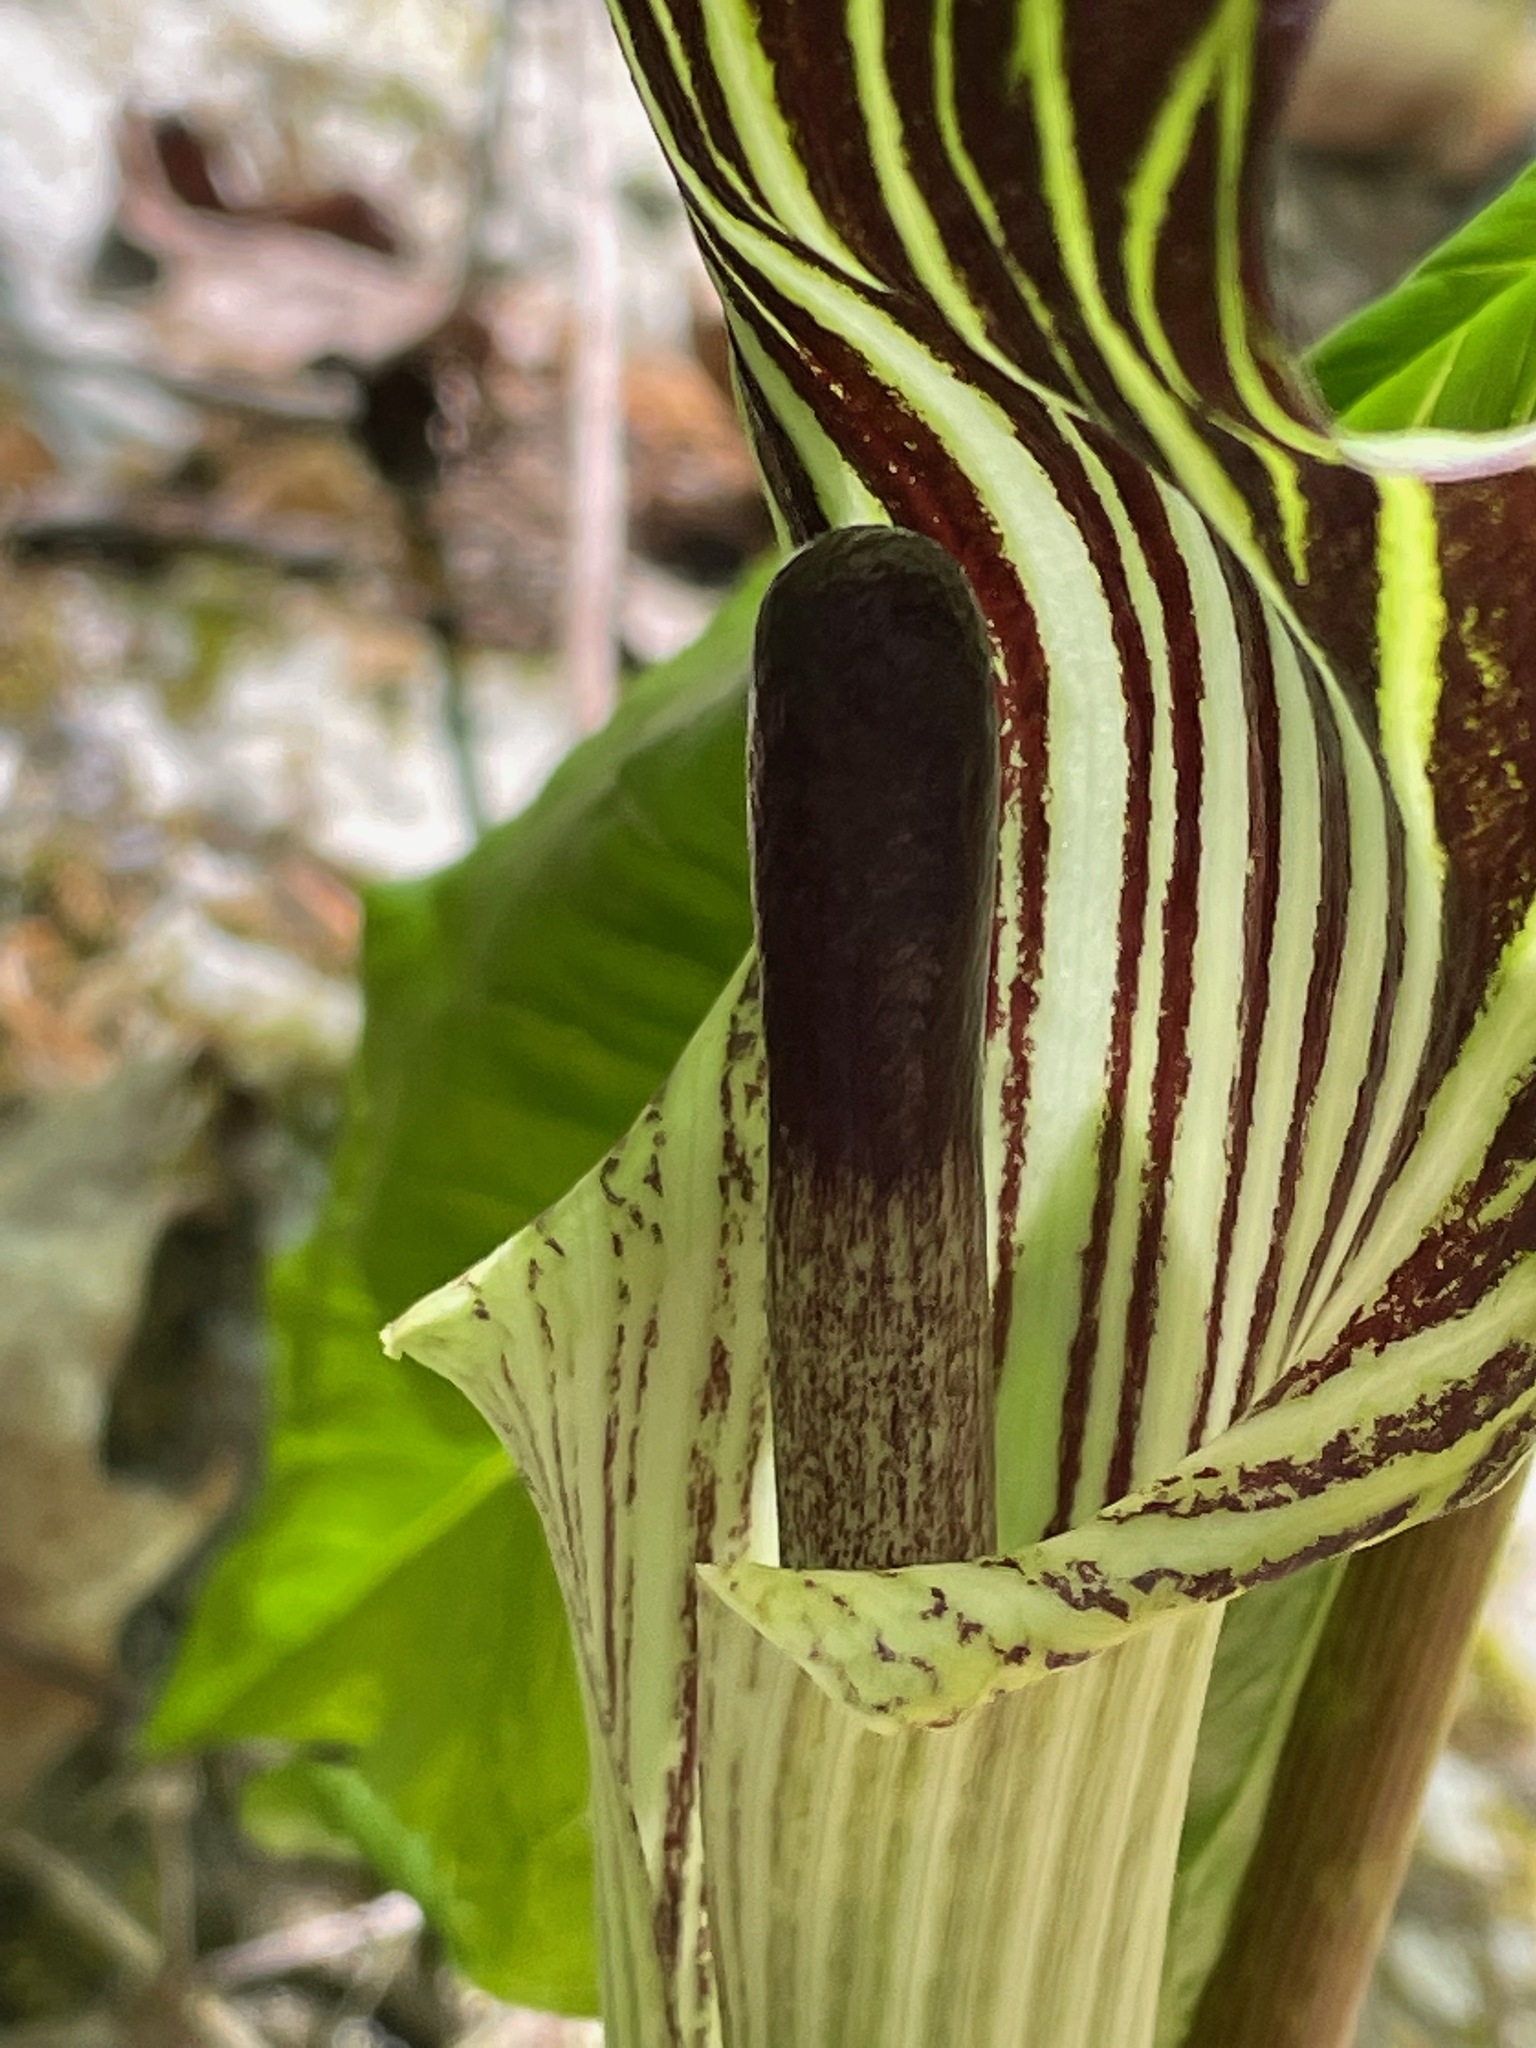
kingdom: Plantae
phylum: Tracheophyta
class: Liliopsida
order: Alismatales
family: Araceae
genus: Arisaema
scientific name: Arisaema triphyllum
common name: Jack-in-the-pulpit
